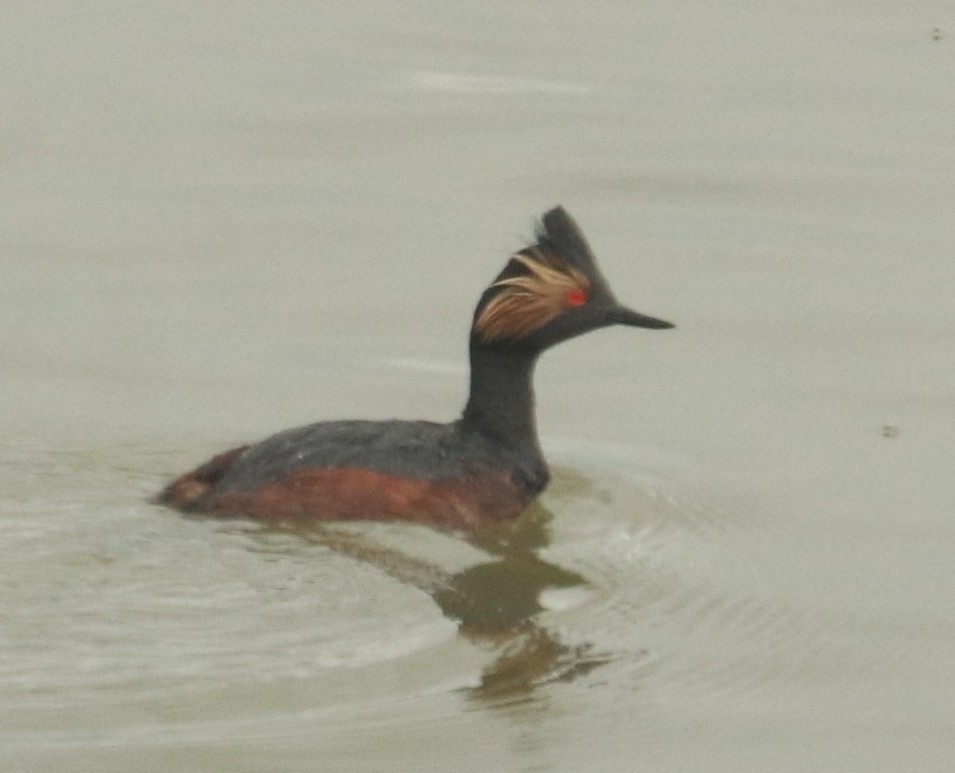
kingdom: Animalia
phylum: Chordata
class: Aves
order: Podicipediformes
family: Podicipedidae
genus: Podiceps
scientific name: Podiceps nigricollis
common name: Black-necked grebe
